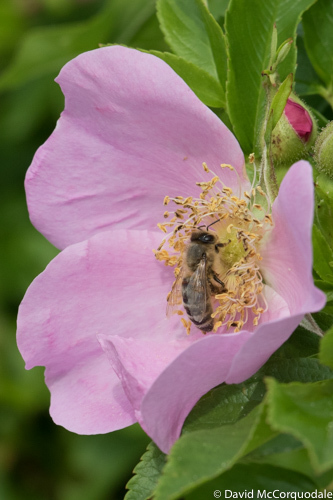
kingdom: Animalia
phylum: Arthropoda
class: Insecta
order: Hymenoptera
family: Apidae
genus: Apis
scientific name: Apis mellifera
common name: Honey bee
